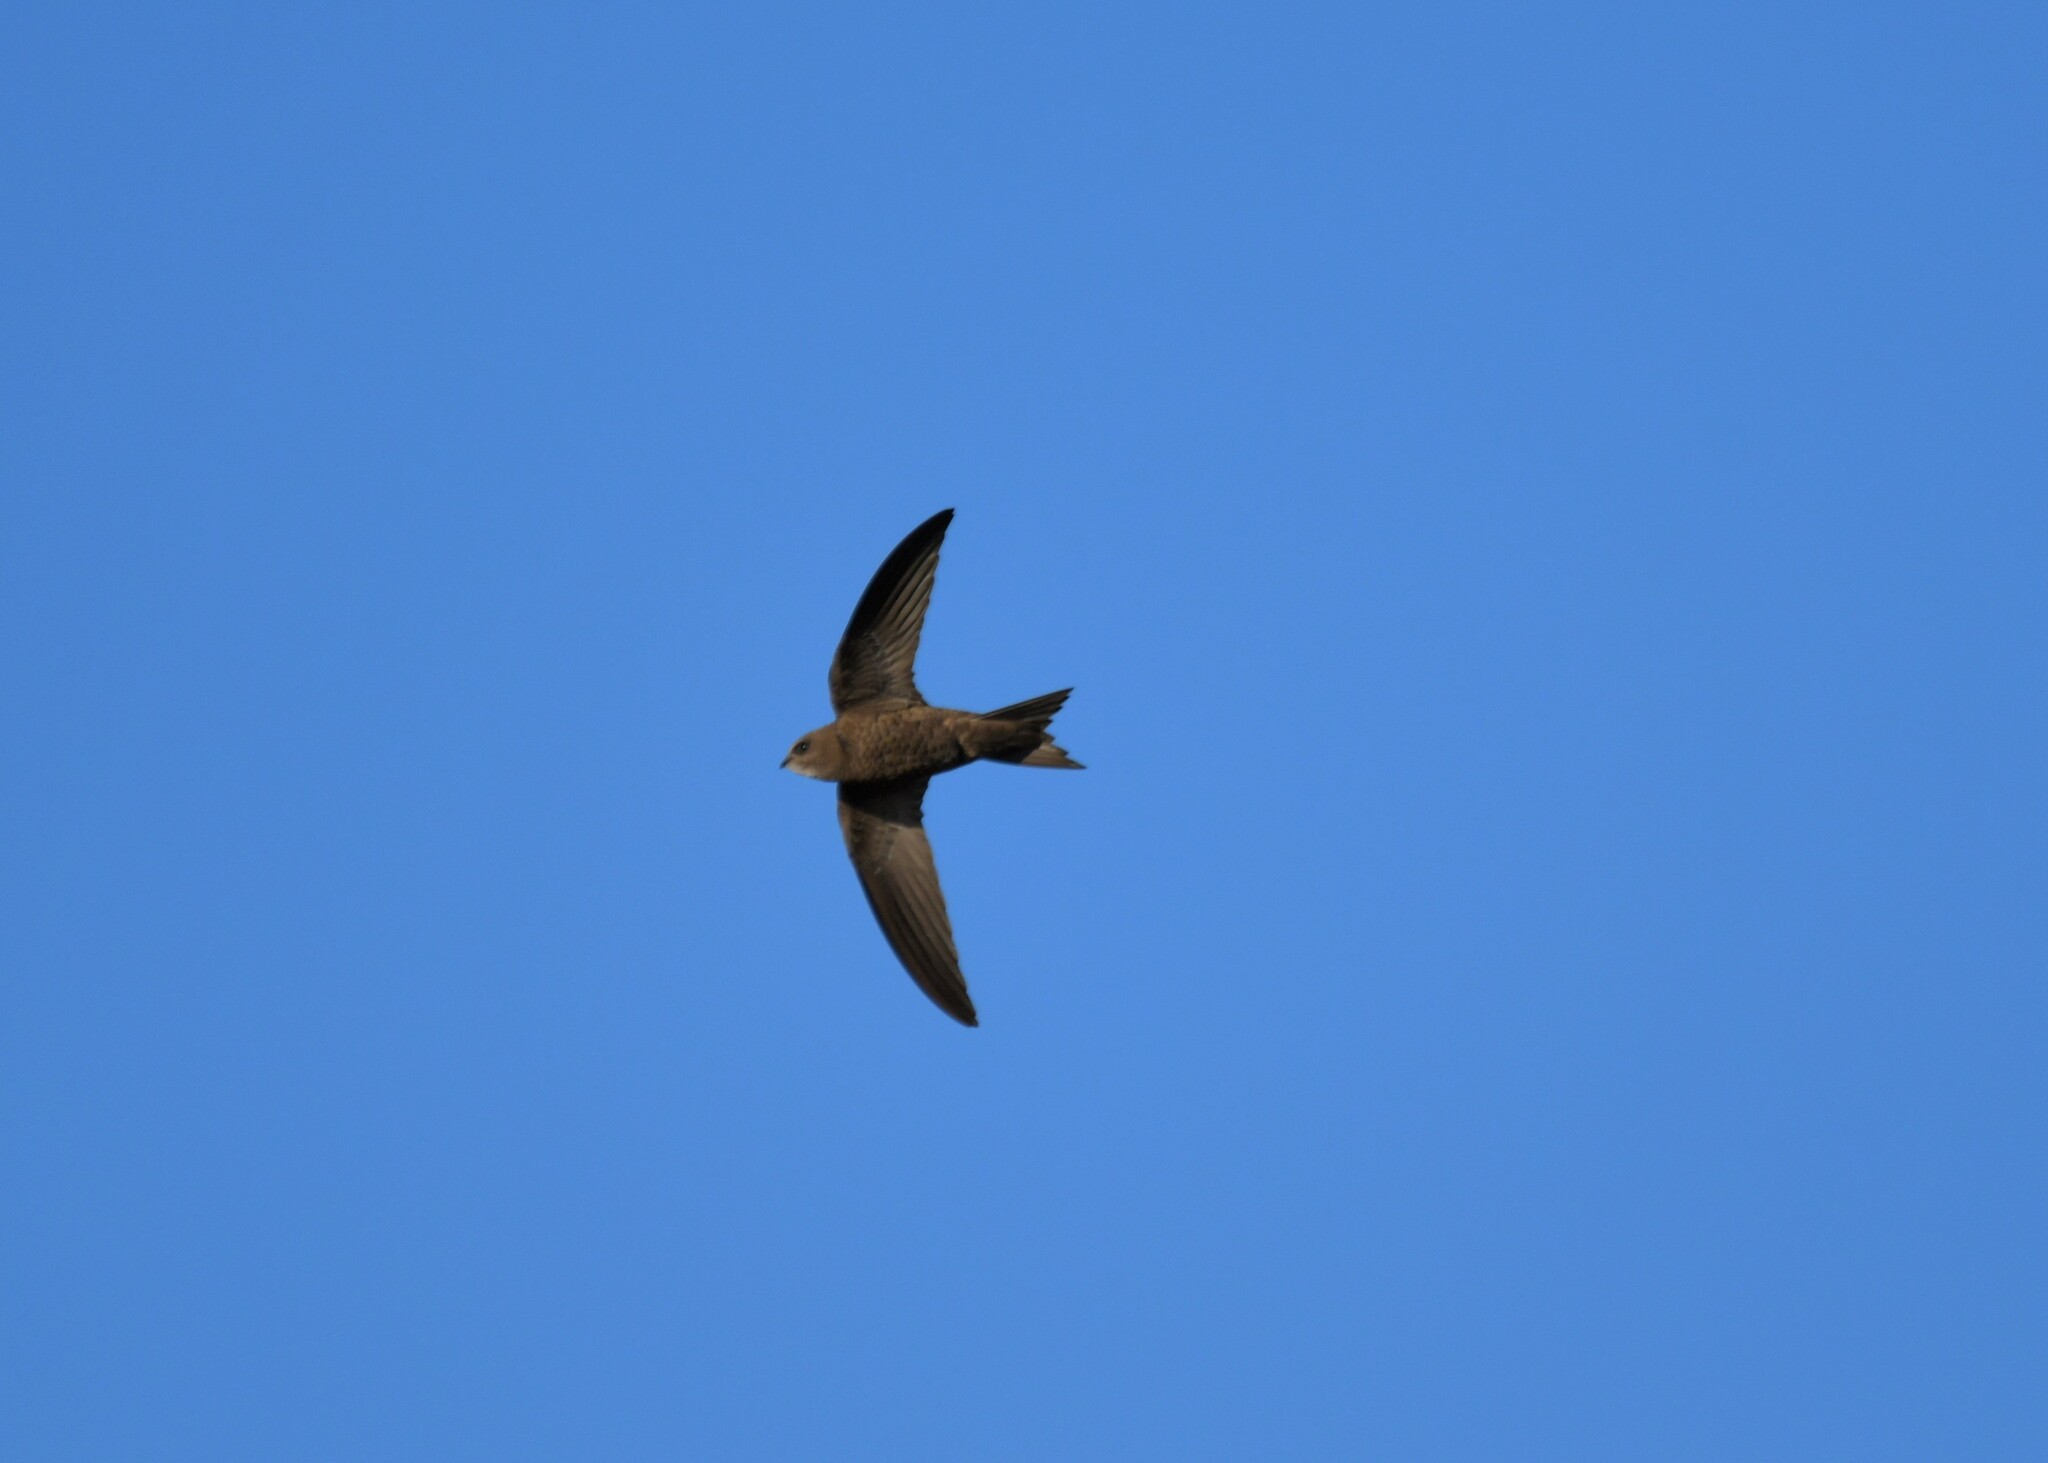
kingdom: Animalia
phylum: Chordata
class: Aves
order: Apodiformes
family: Apodidae
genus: Apus
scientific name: Apus pallidus
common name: Pallid swift
